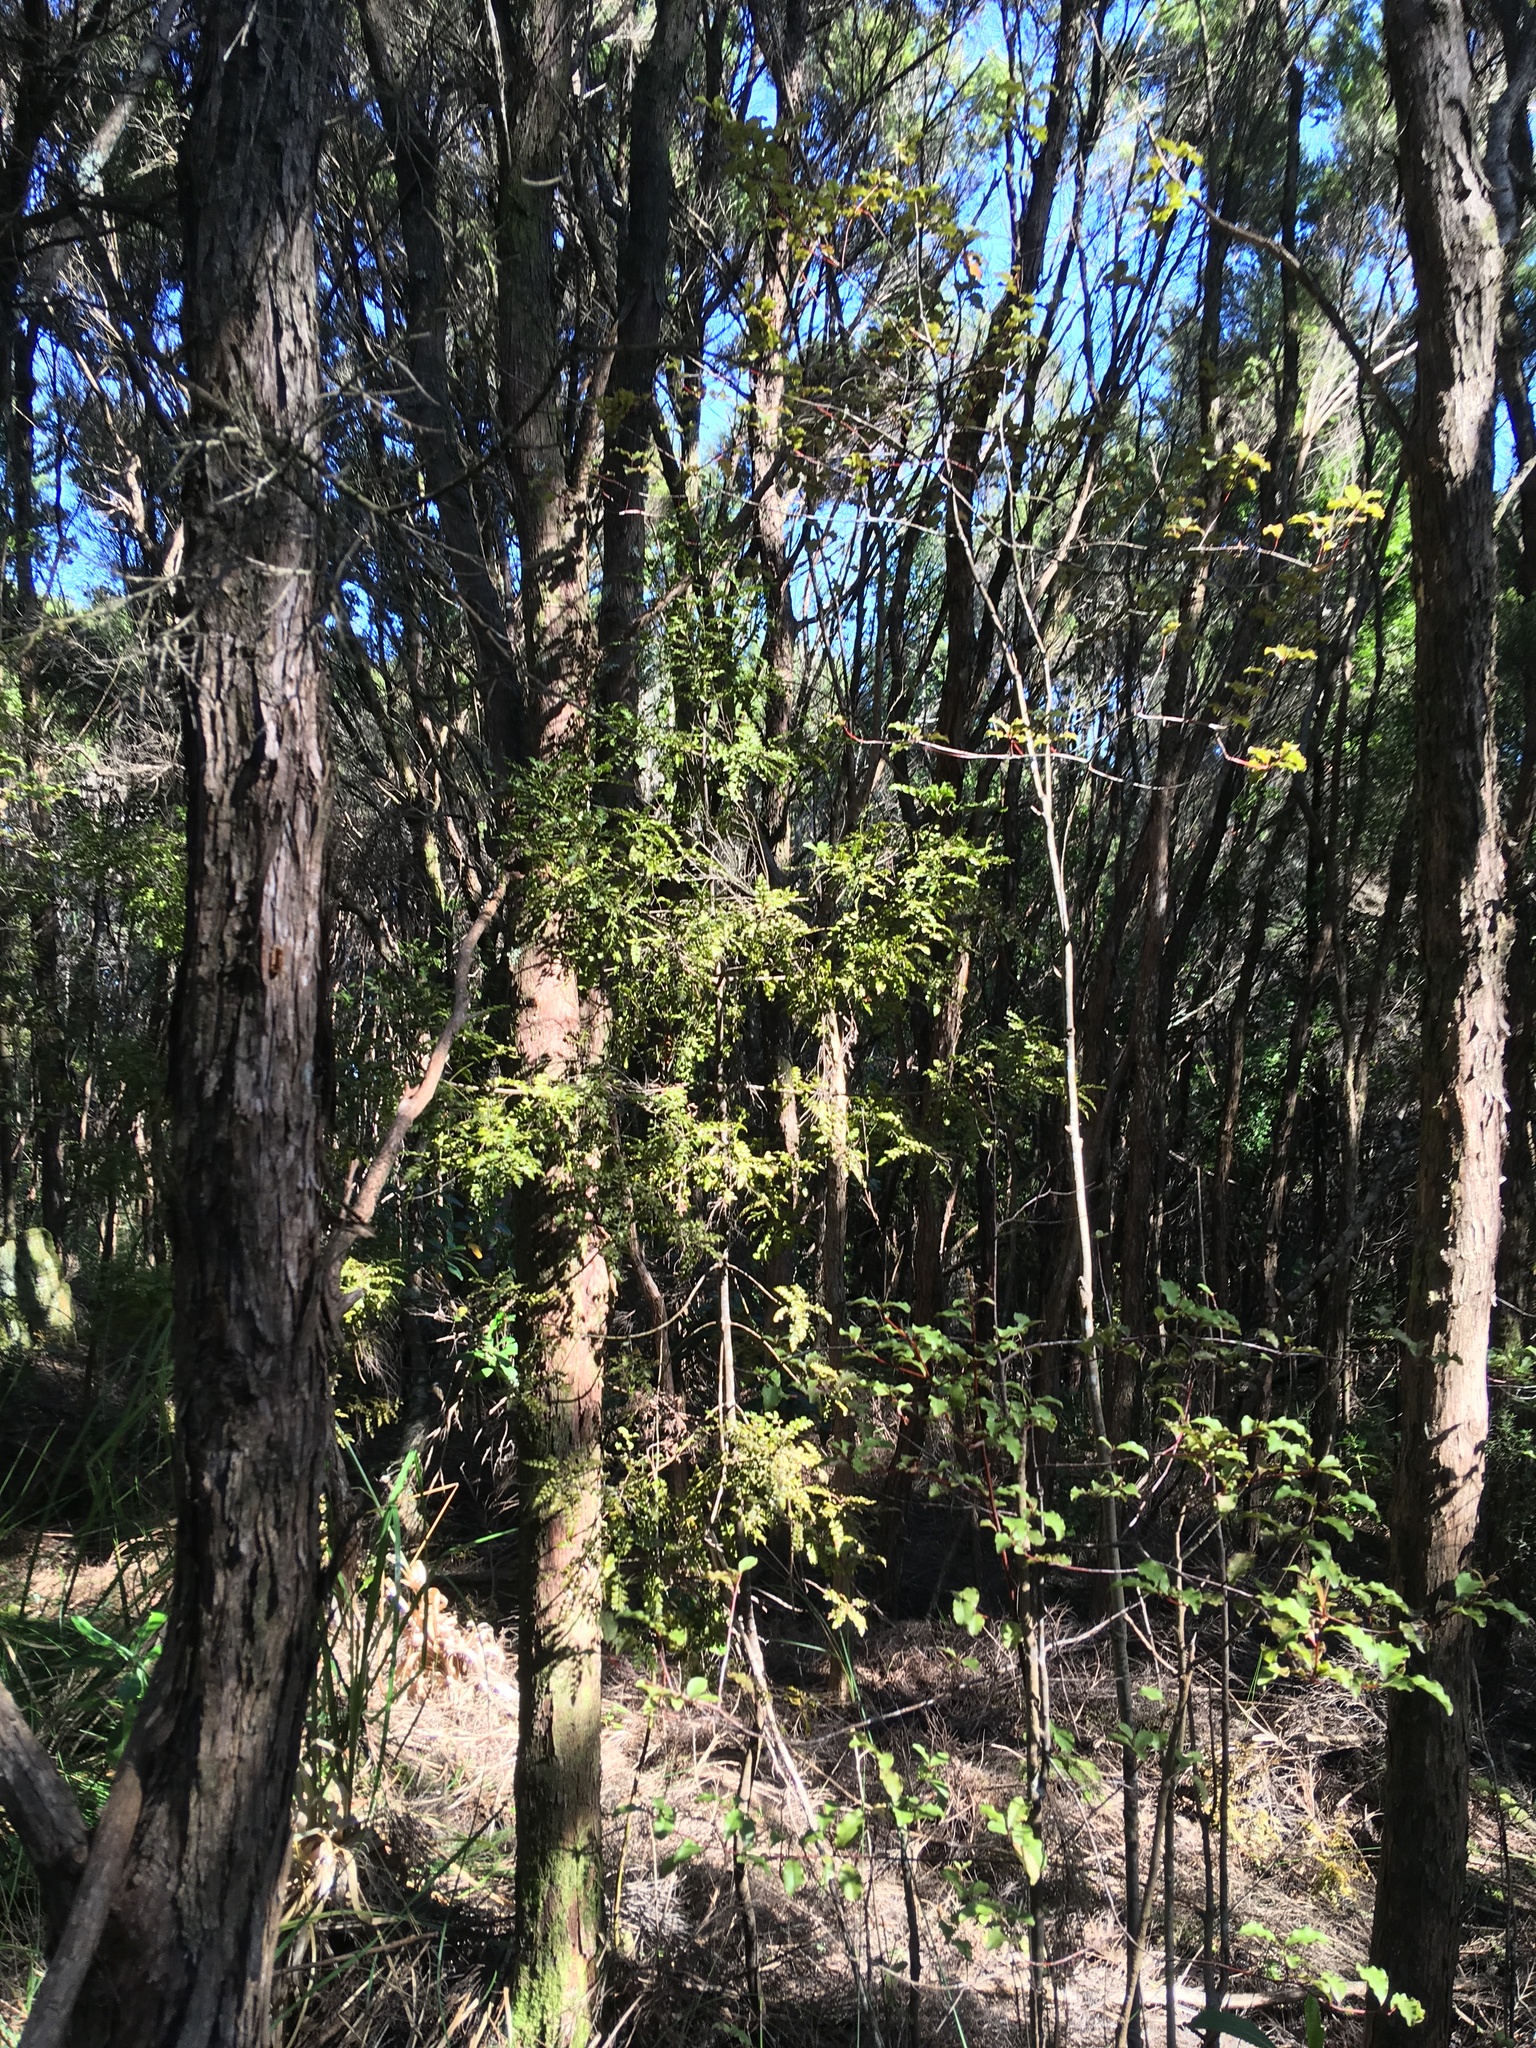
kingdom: Plantae
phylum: Tracheophyta
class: Pinopsida
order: Pinales
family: Phyllocladaceae
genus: Phyllocladus
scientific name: Phyllocladus trichomanoides
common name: Celery pine
